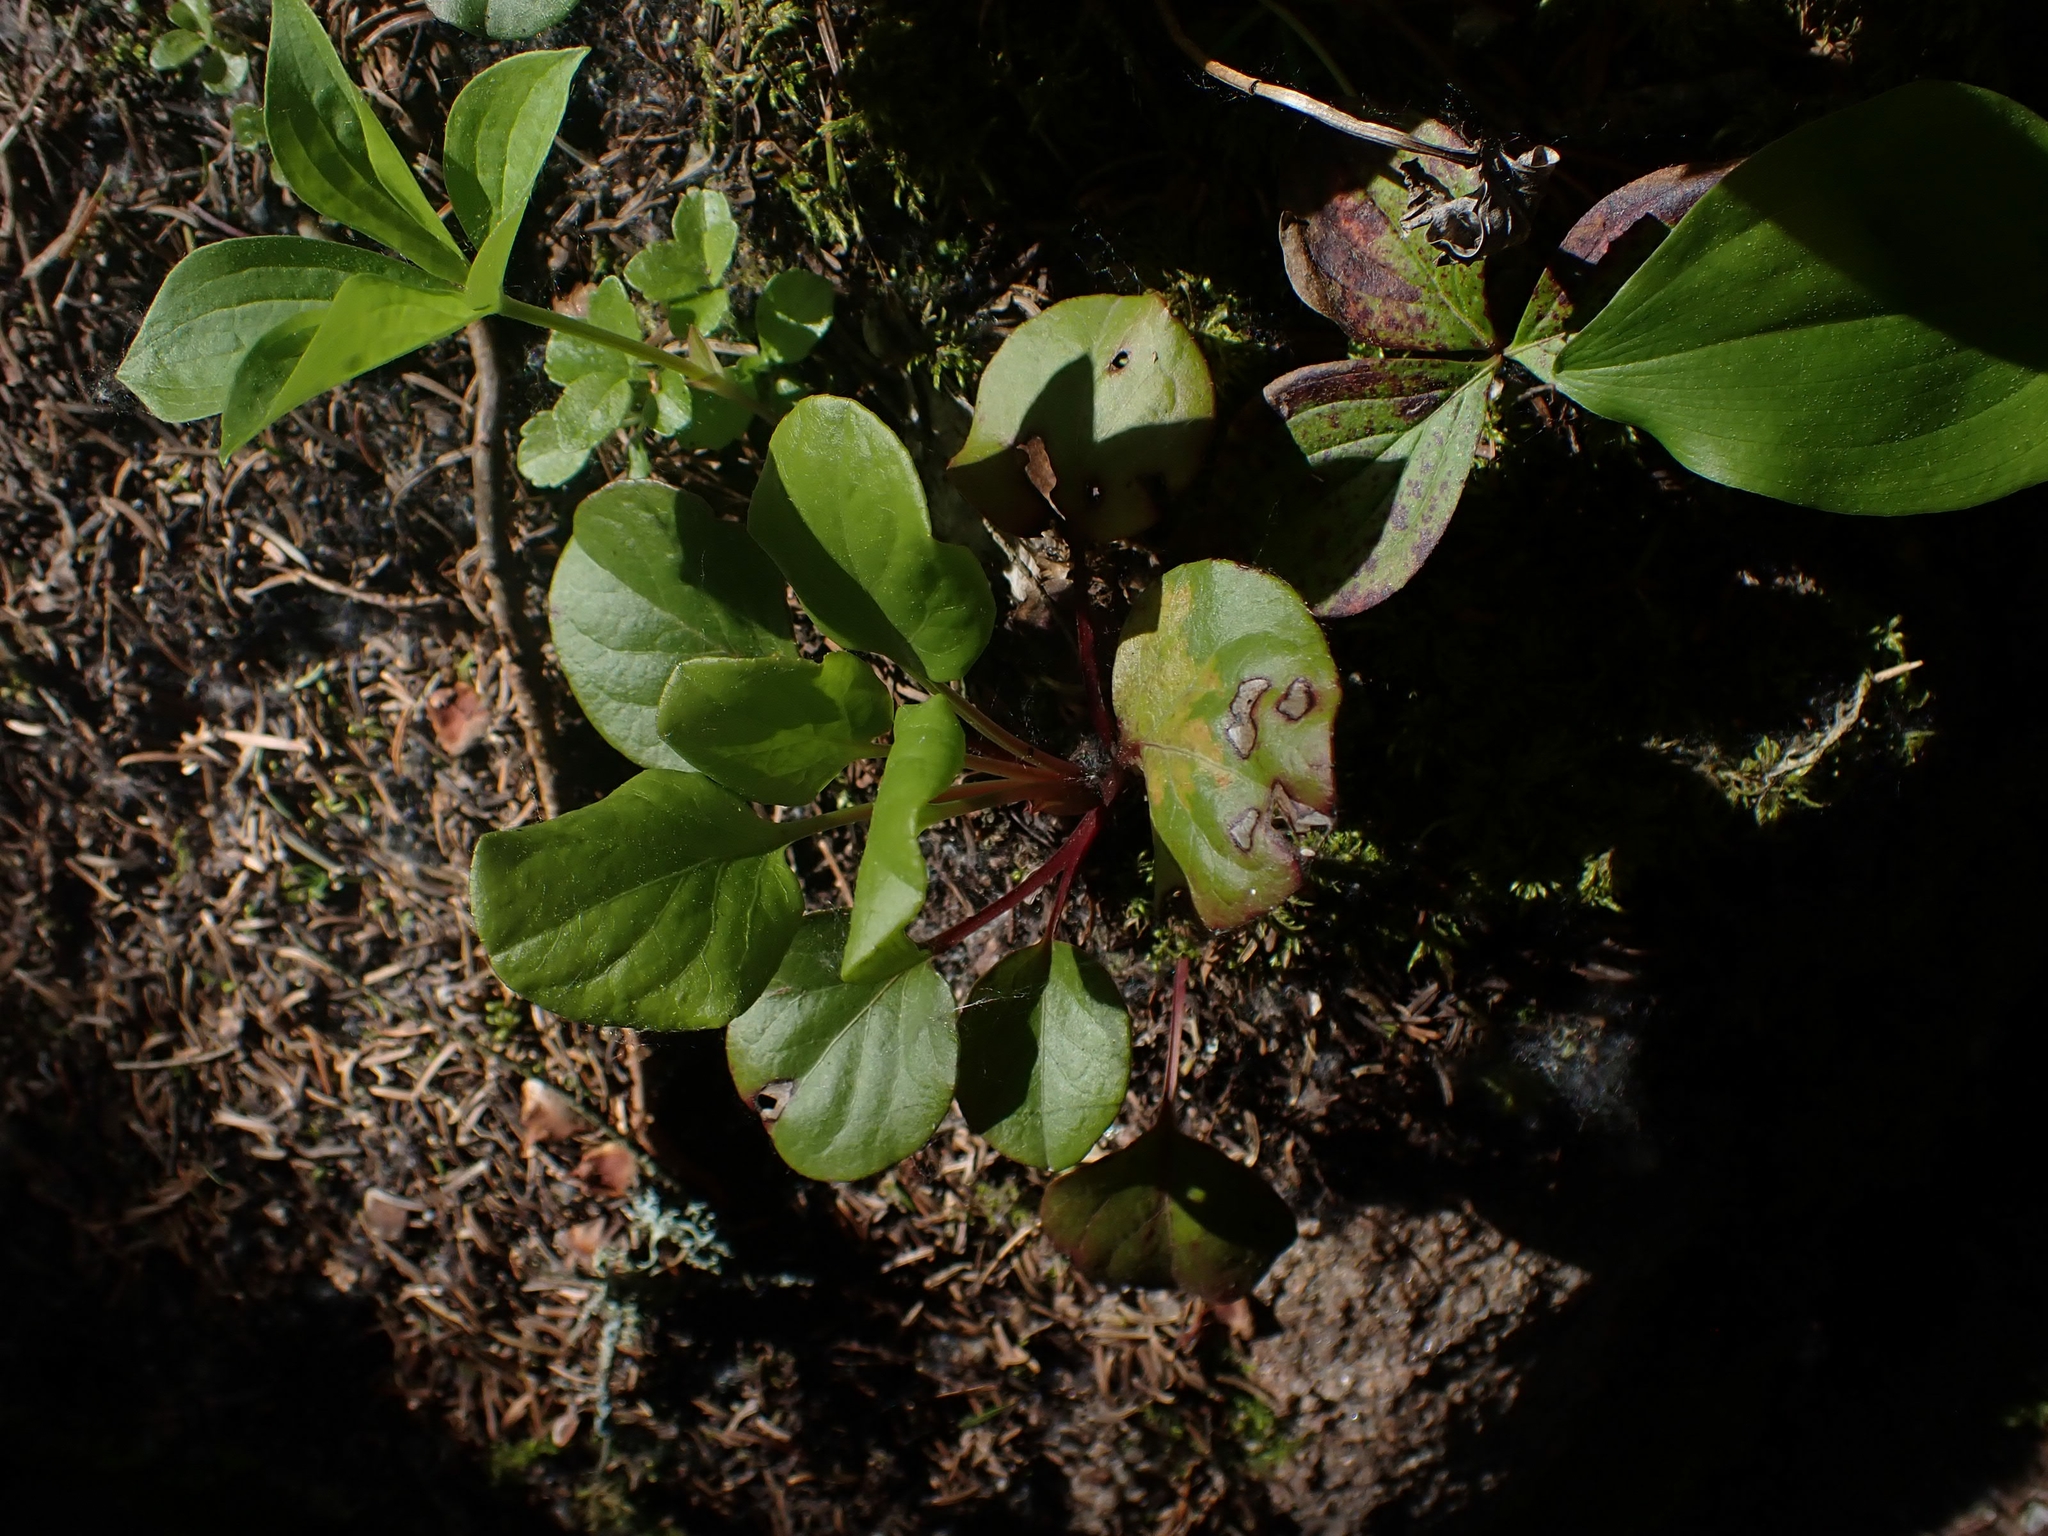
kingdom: Plantae
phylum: Tracheophyta
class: Magnoliopsida
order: Ericales
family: Ericaceae
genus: Pyrola
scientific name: Pyrola asarifolia
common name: Bog wintergreen
